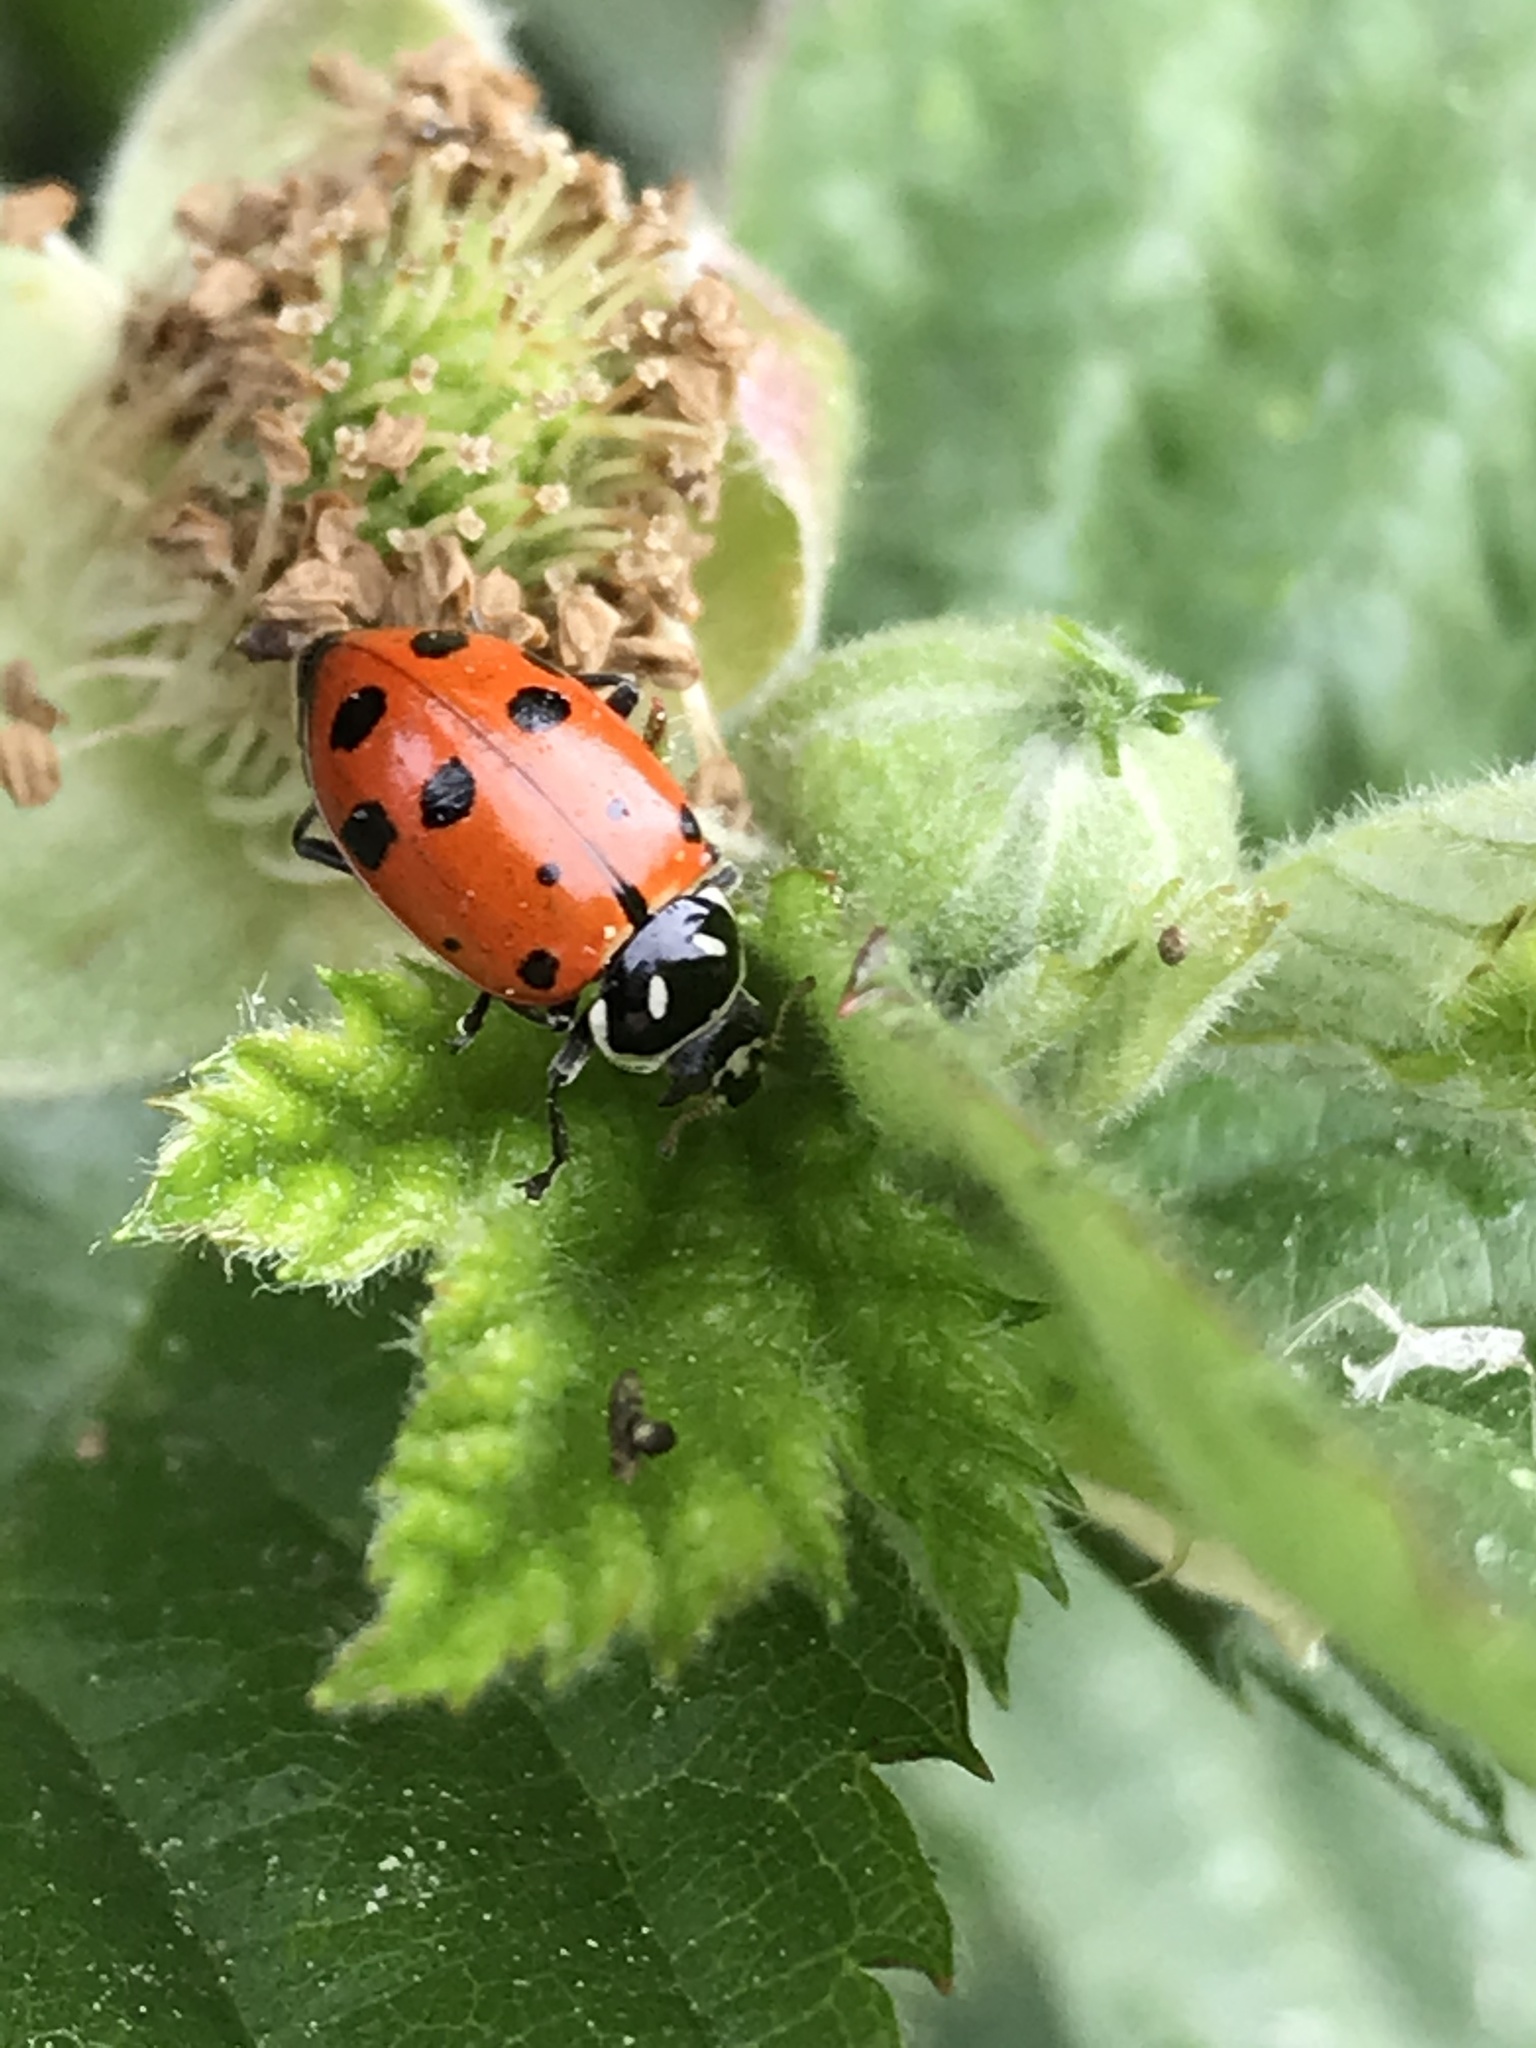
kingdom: Animalia
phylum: Arthropoda
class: Insecta
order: Coleoptera
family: Coccinellidae
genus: Hippodamia
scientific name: Hippodamia convergens
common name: Convergent lady beetle
